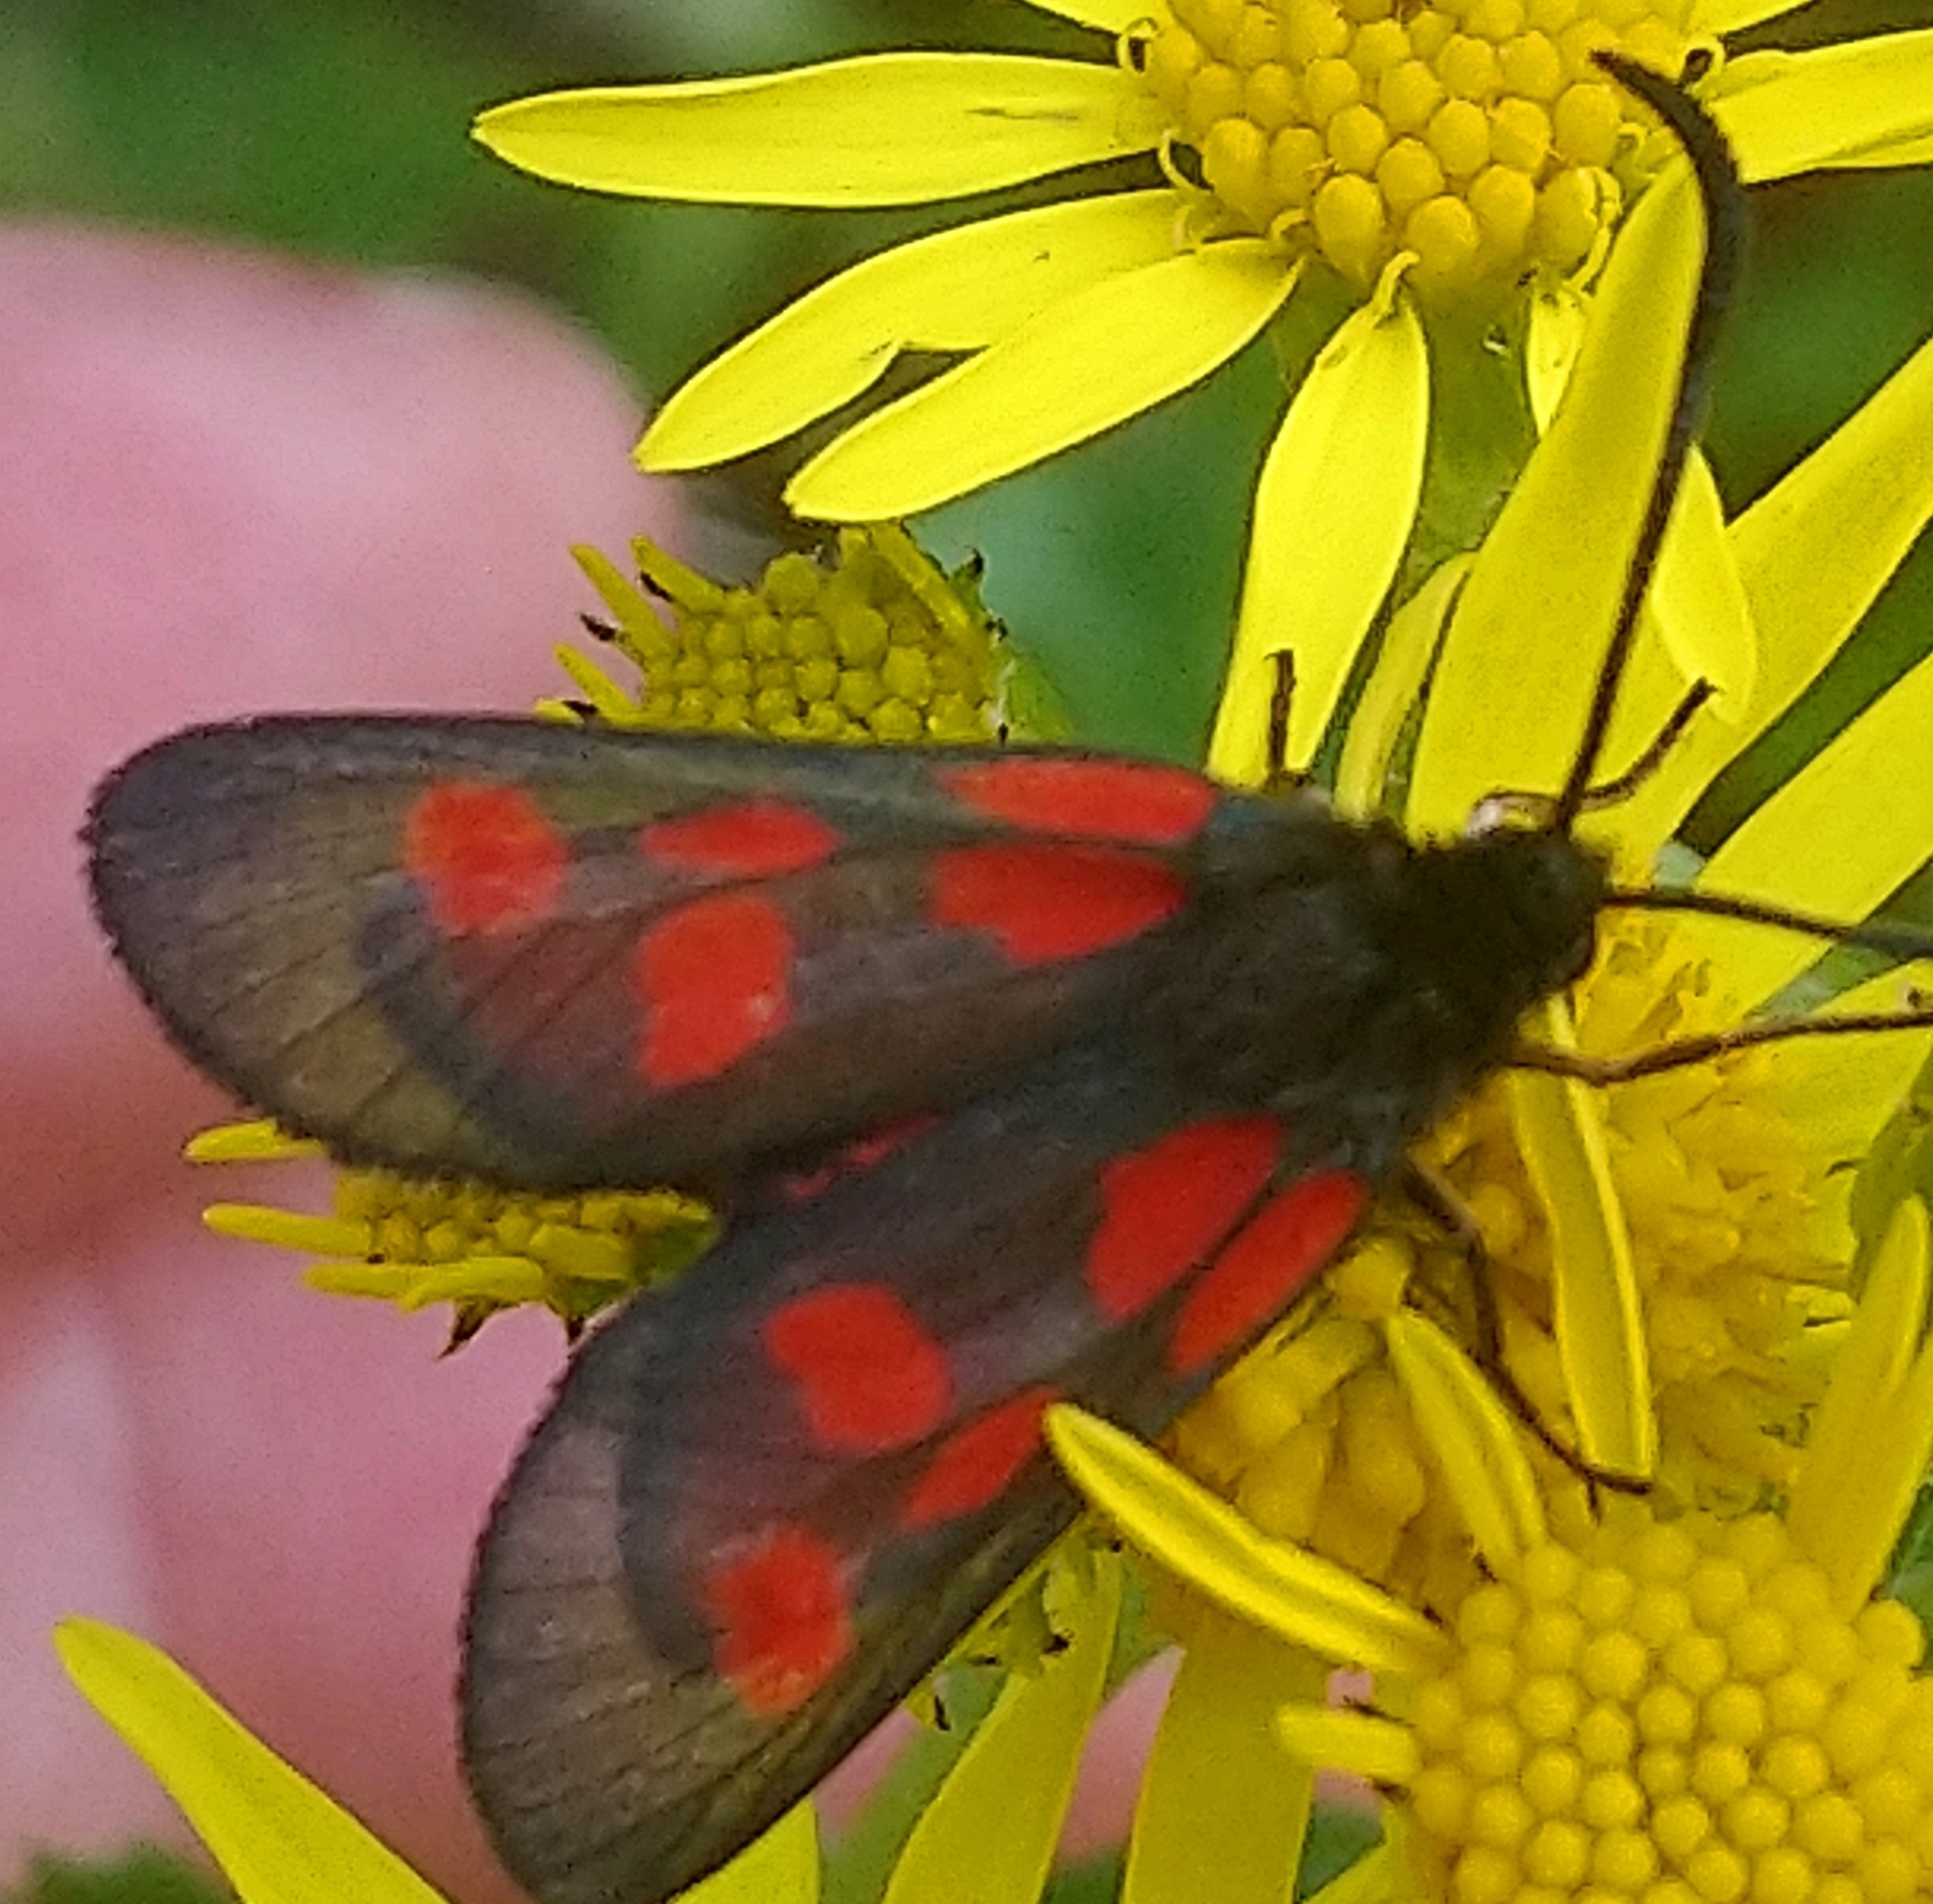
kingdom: Animalia
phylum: Arthropoda
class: Insecta
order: Lepidoptera
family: Zygaenidae
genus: Zygaena
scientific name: Zygaena lonicerae
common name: Narrow-bordered five-spot burnet
